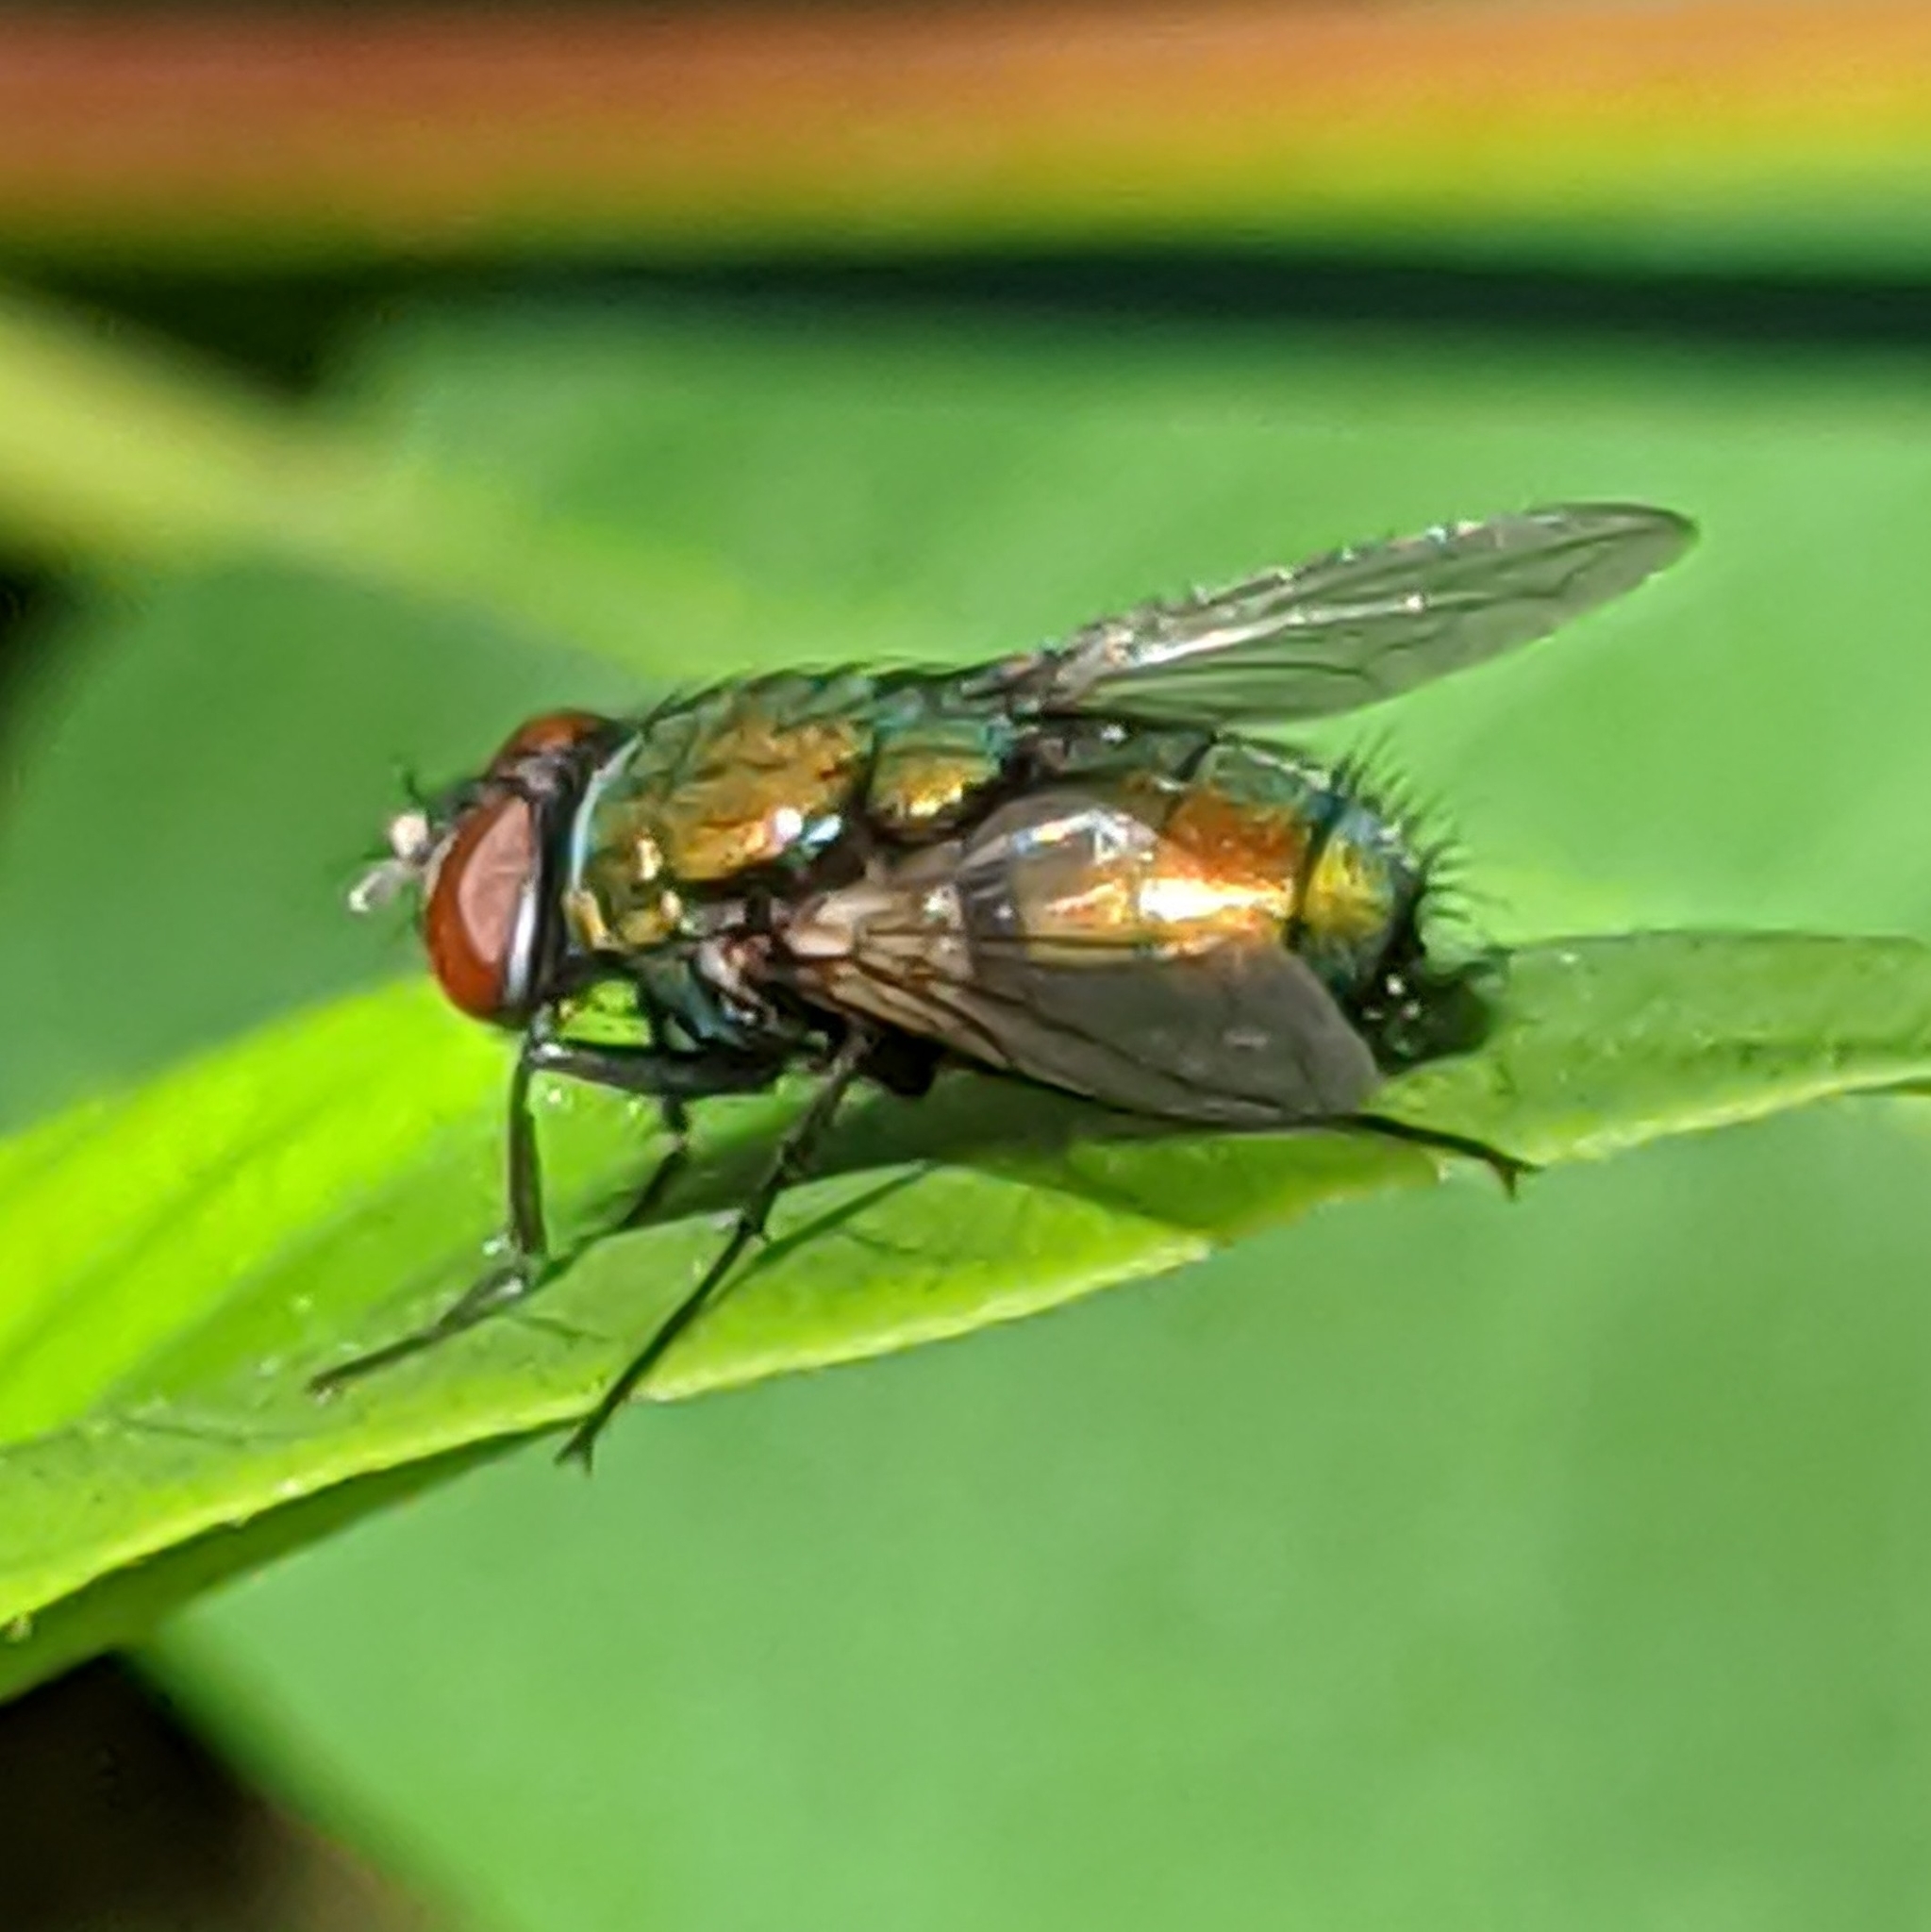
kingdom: Animalia
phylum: Arthropoda
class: Insecta
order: Diptera
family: Calliphoridae
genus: Lucilia
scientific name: Lucilia
